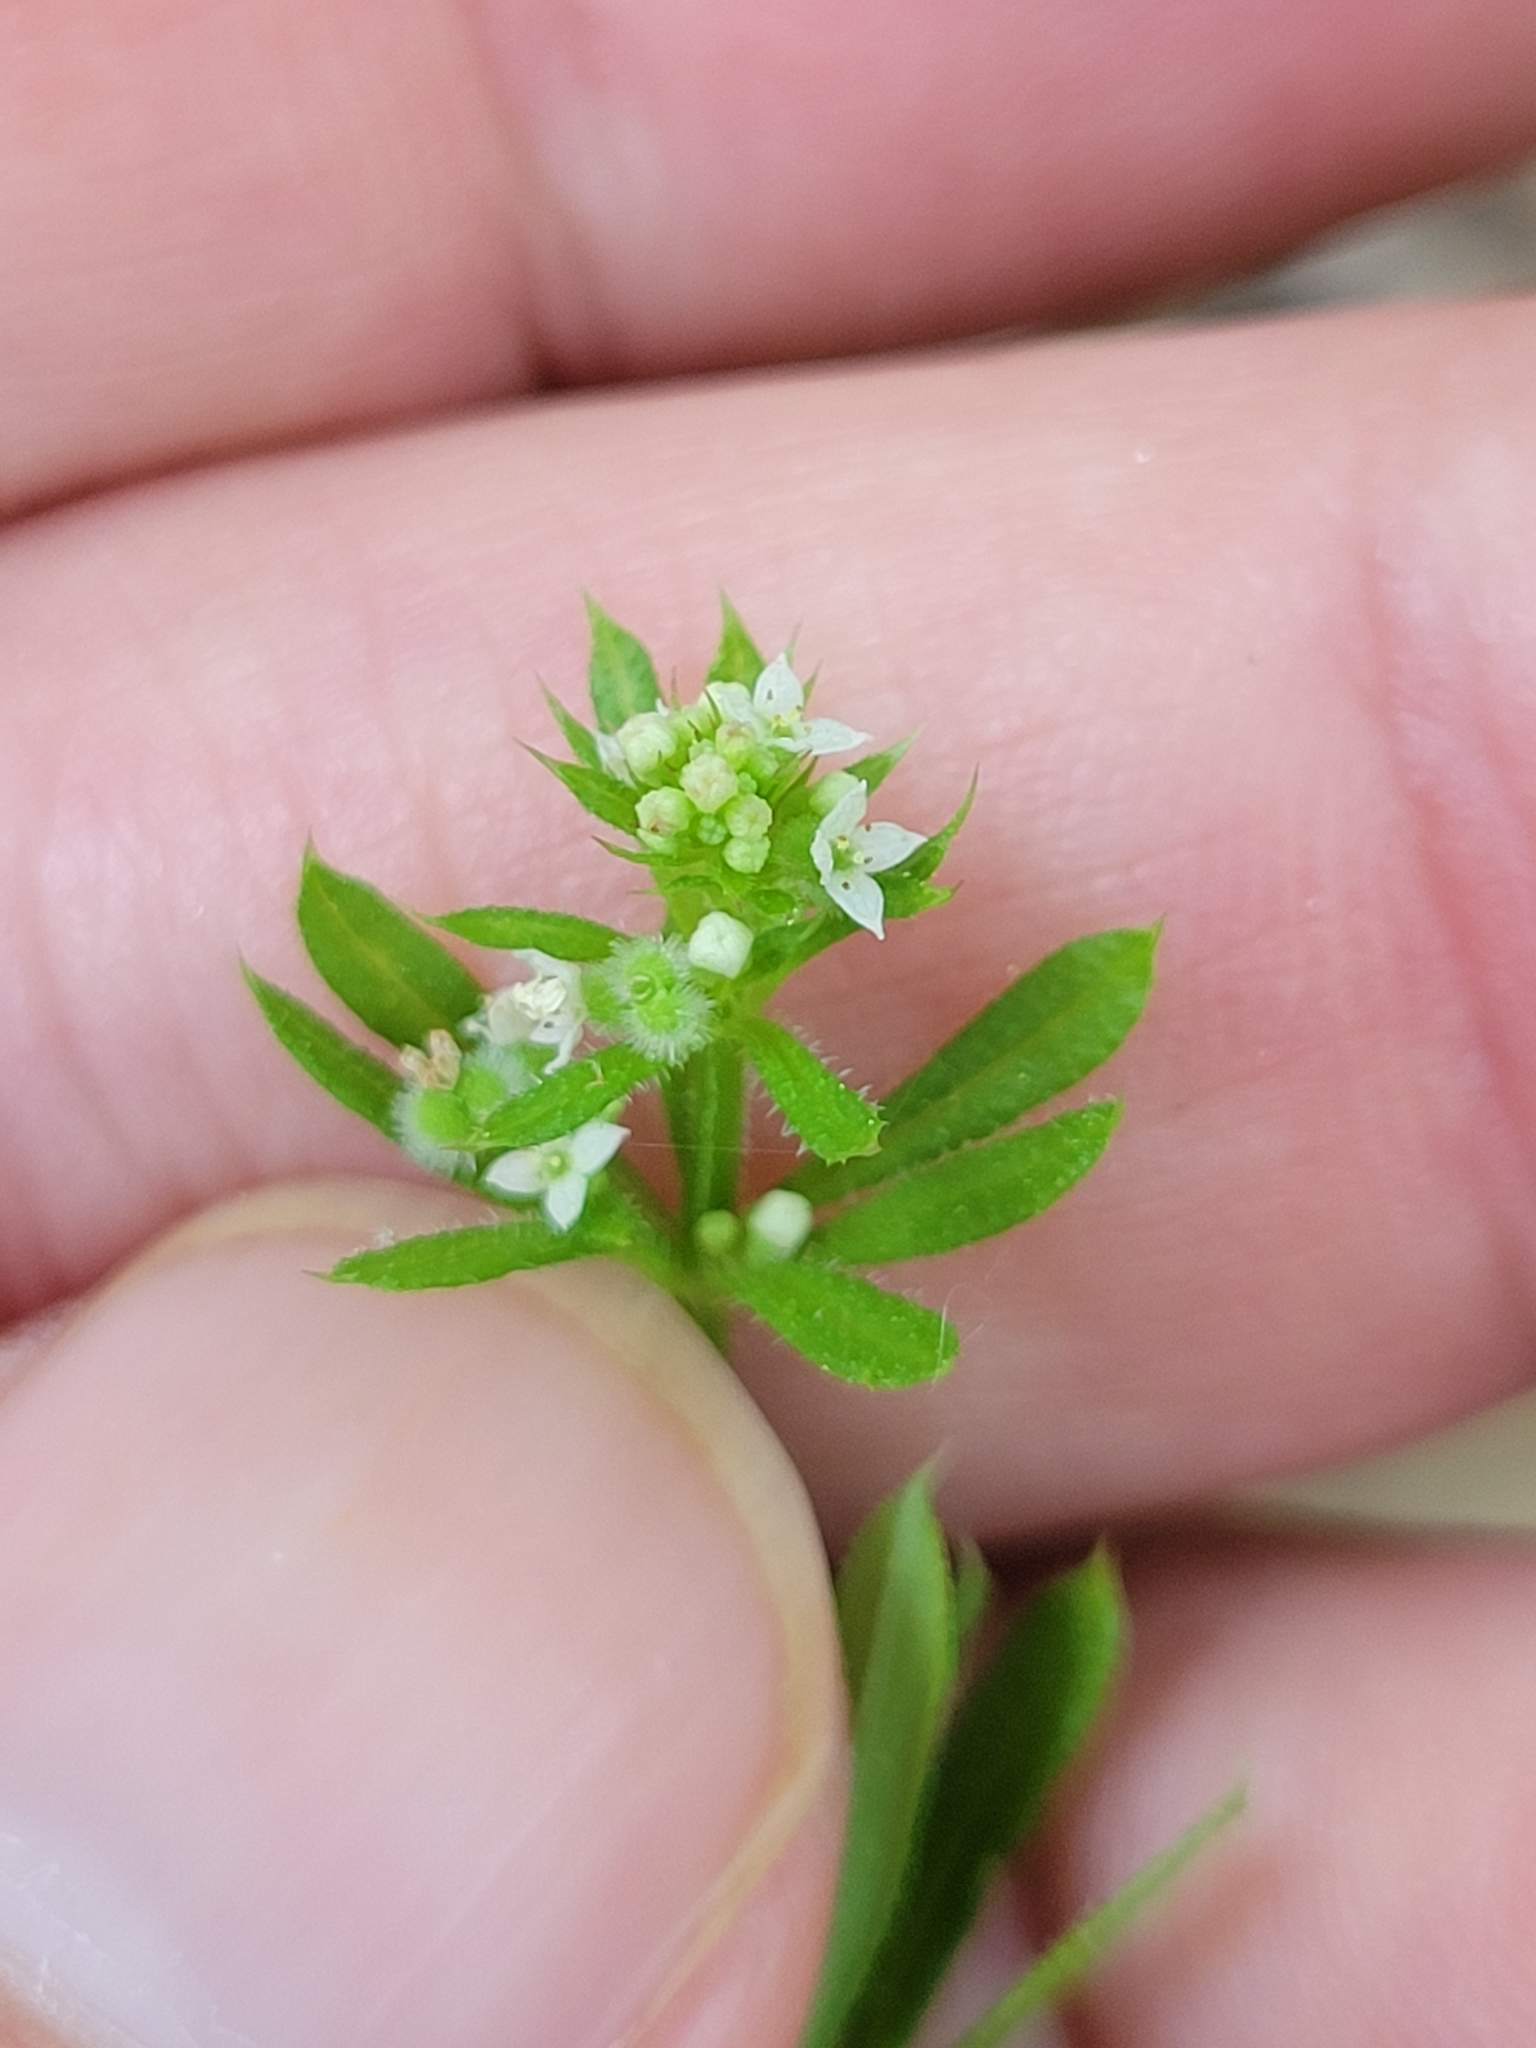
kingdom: Plantae
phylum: Tracheophyta
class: Magnoliopsida
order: Gentianales
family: Rubiaceae
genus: Galium
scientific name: Galium aparine
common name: Cleavers
